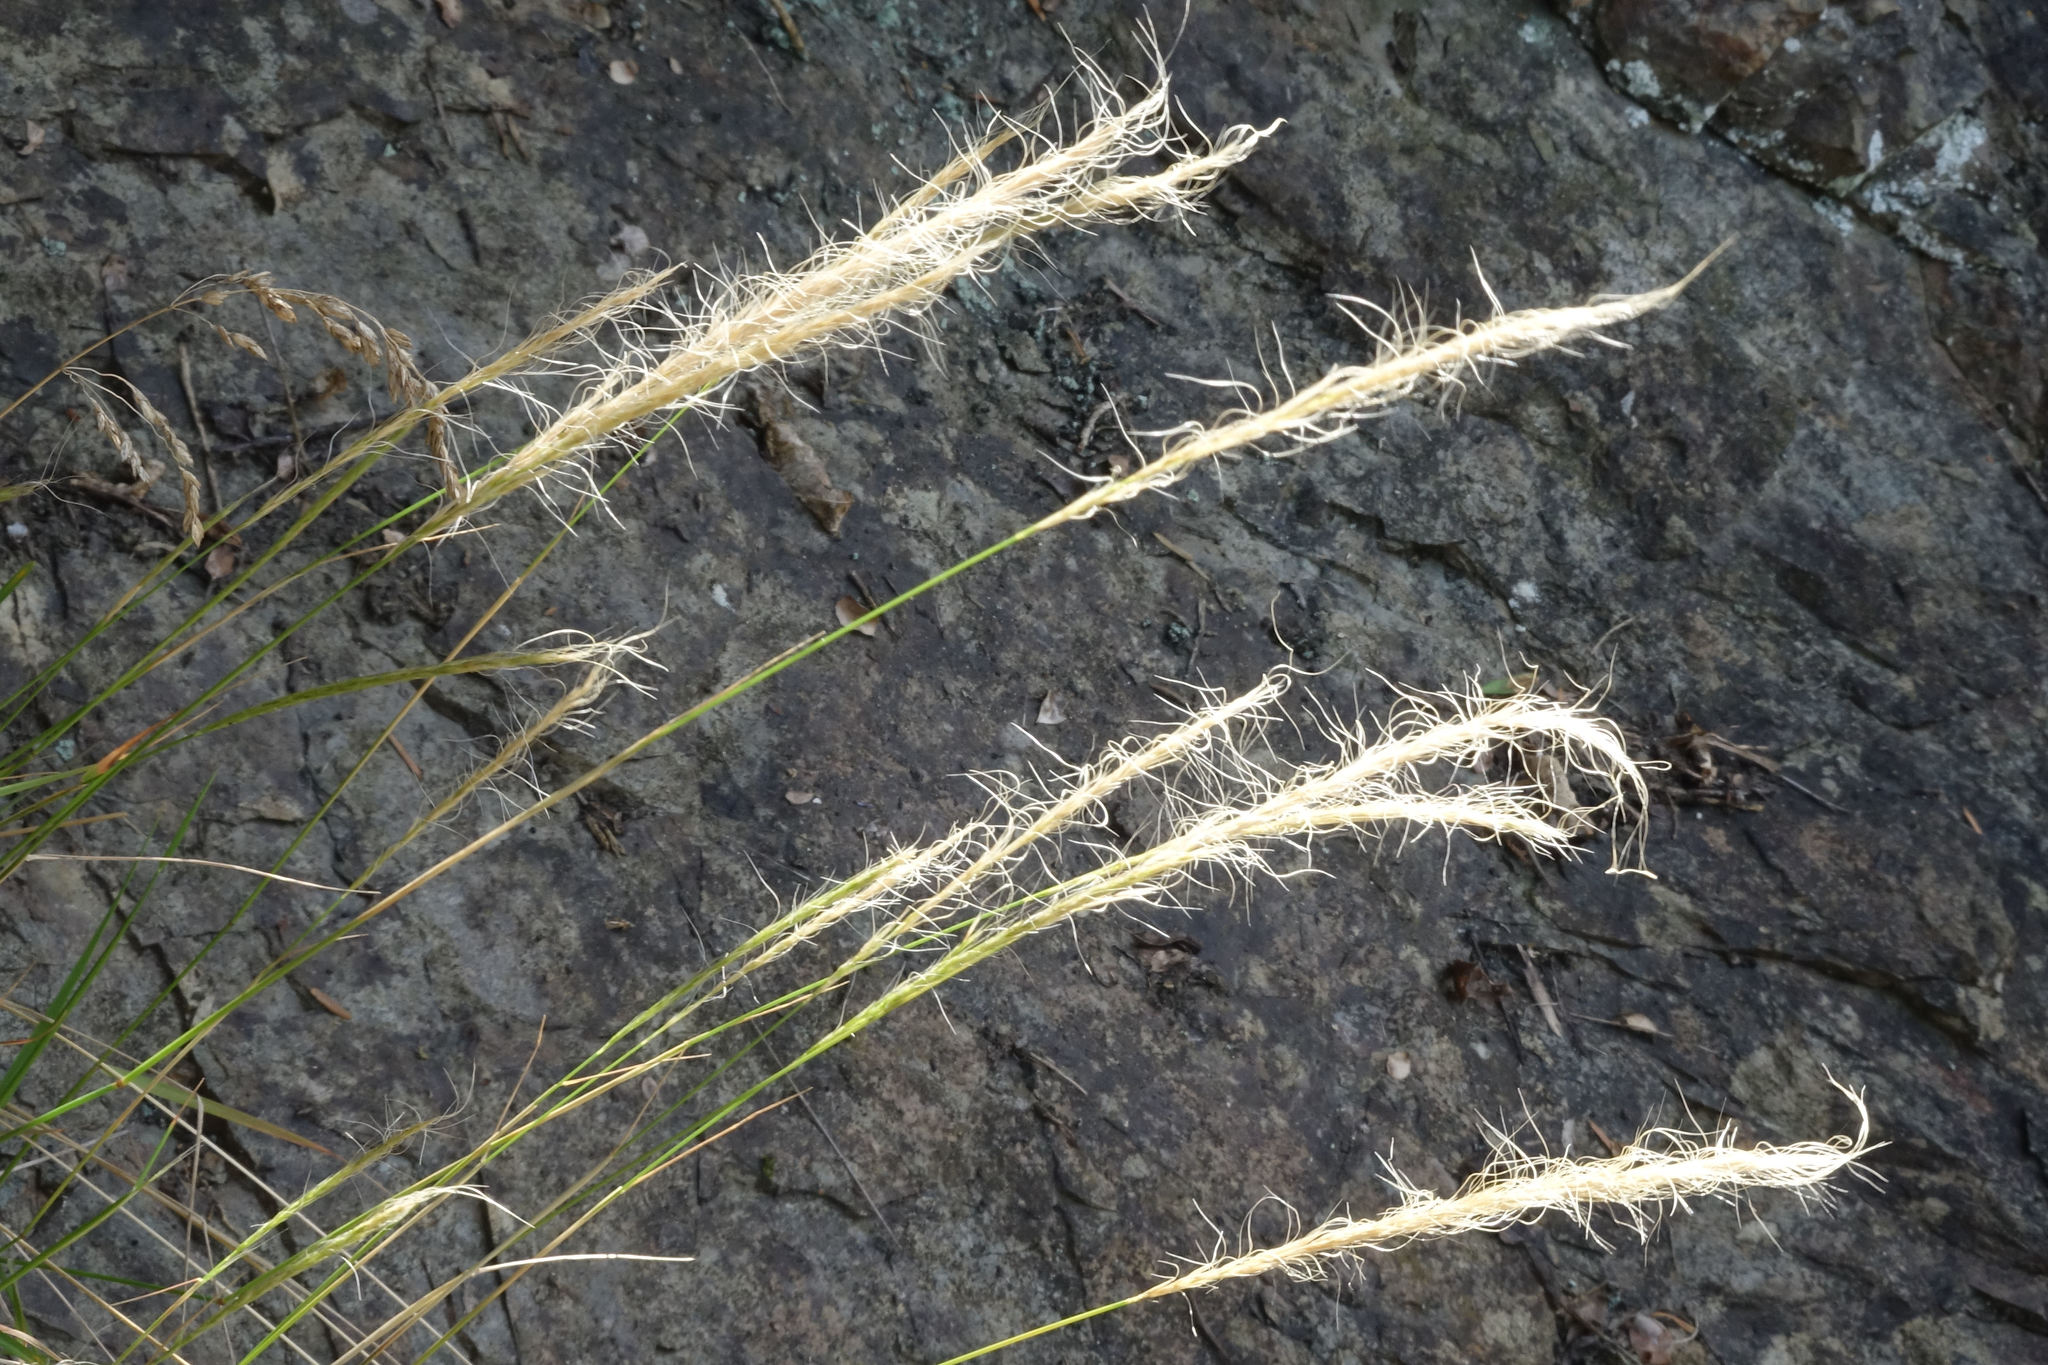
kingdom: Plantae
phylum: Tracheophyta
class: Liliopsida
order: Poales
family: Poaceae
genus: Dichelachne
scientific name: Dichelachne crinita
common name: Clovenfoot plumegrass
